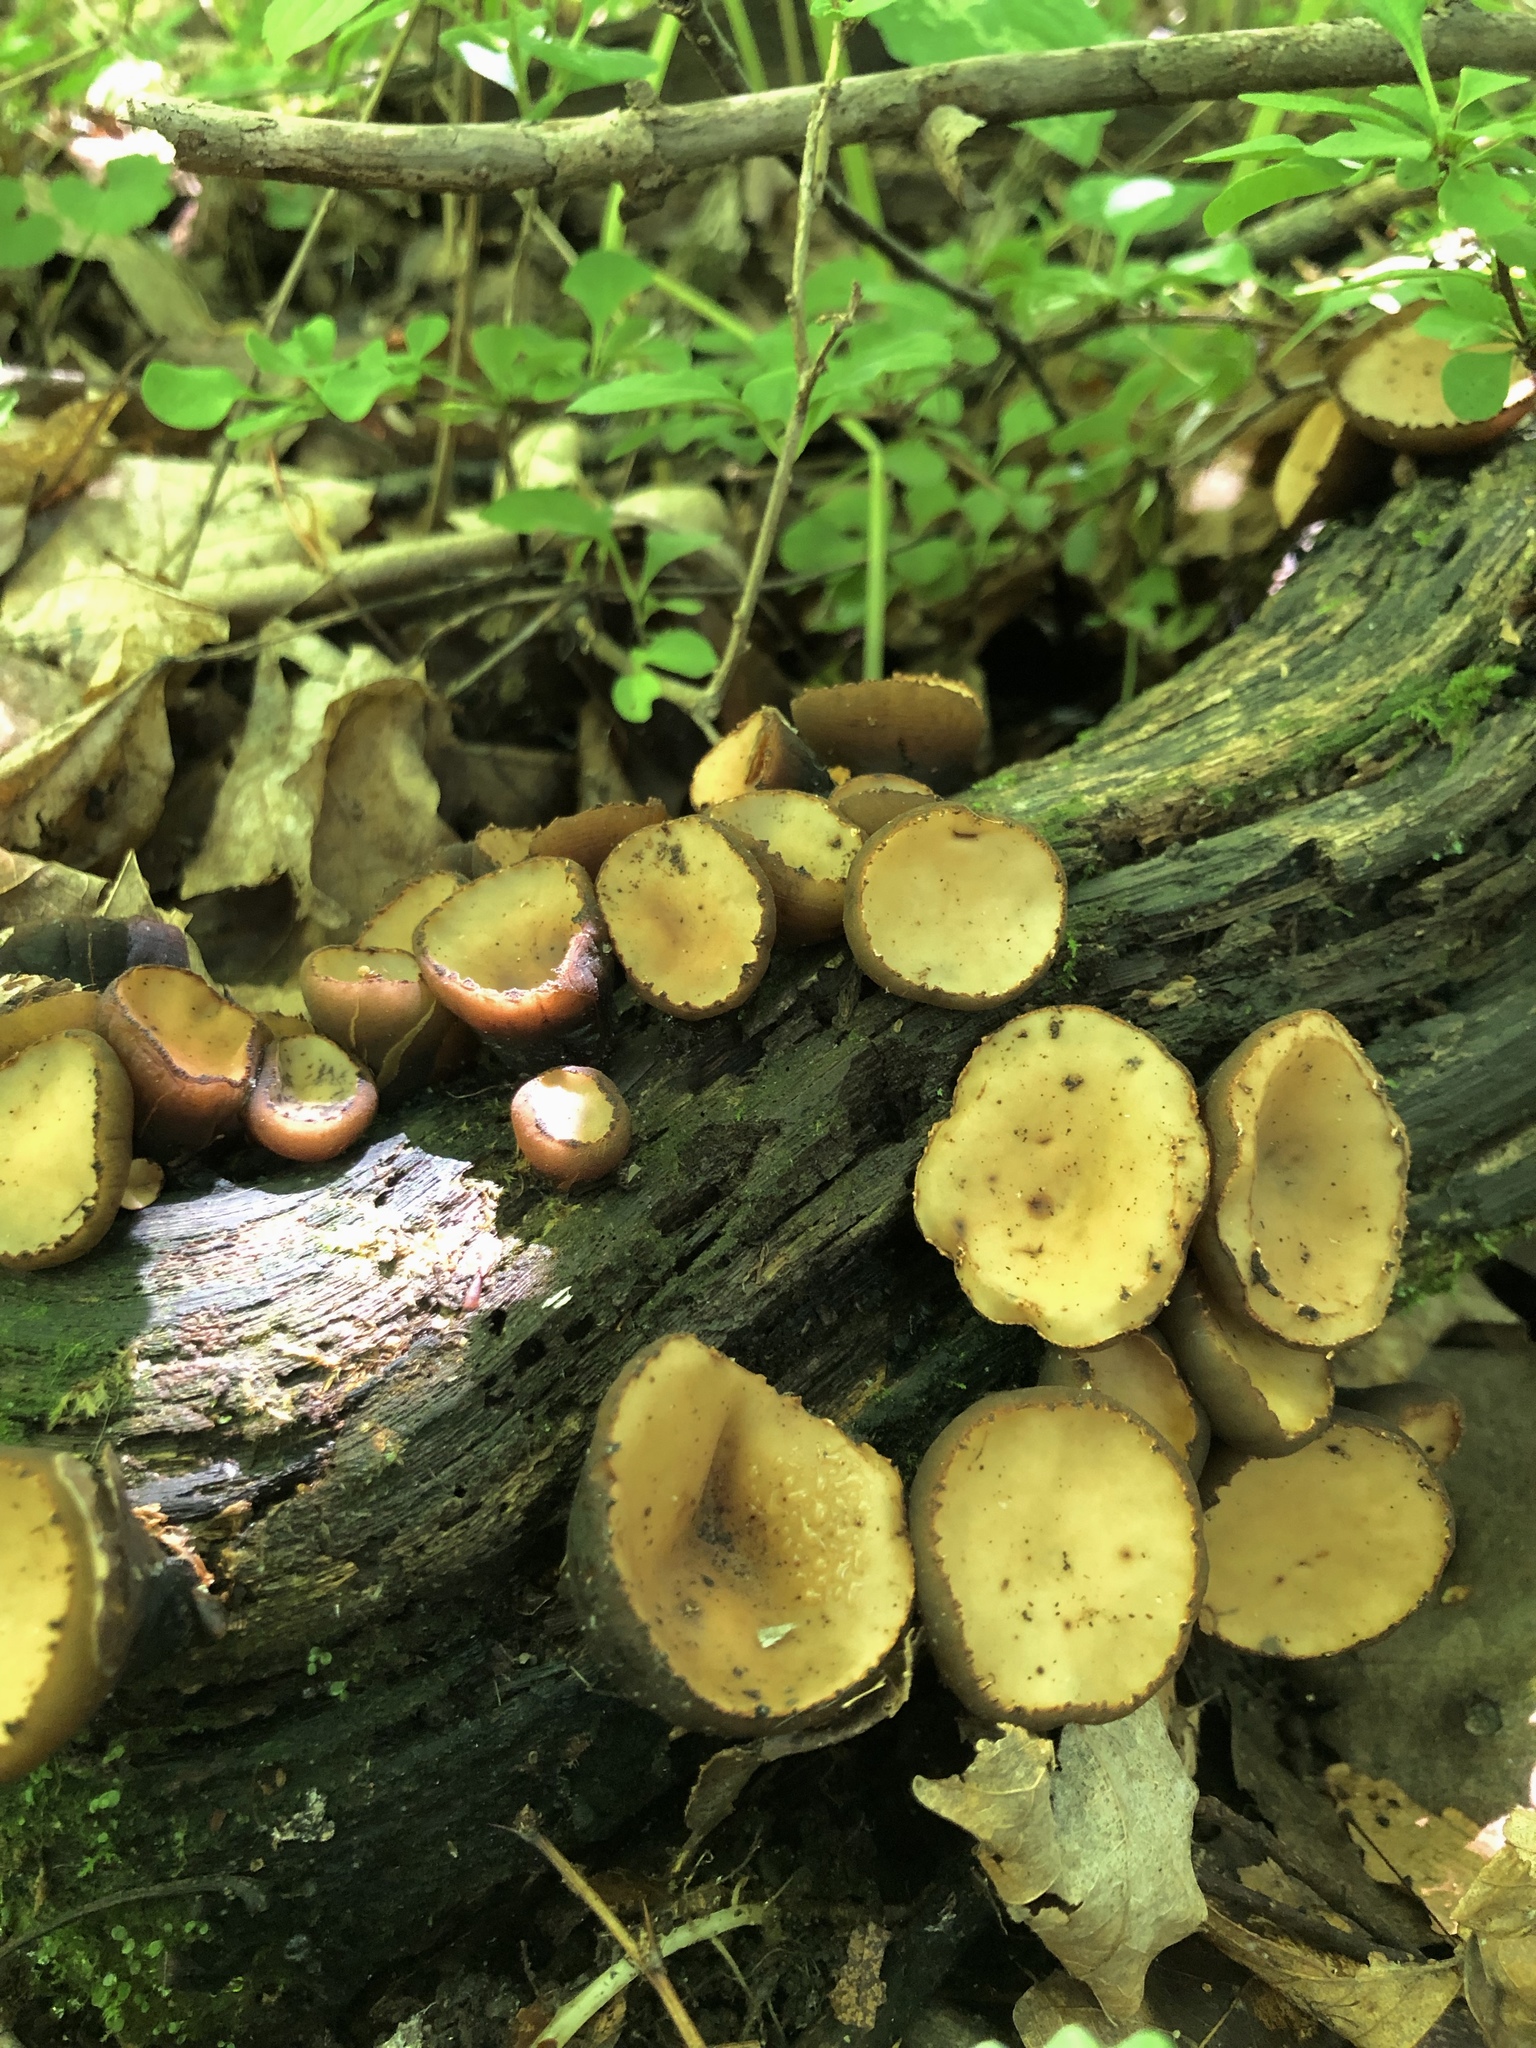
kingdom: Fungi
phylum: Ascomycota
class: Pezizomycetes
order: Pezizales
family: Sarcosomataceae
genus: Galiella
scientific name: Galiella rufa
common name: Hairy rubber cup
